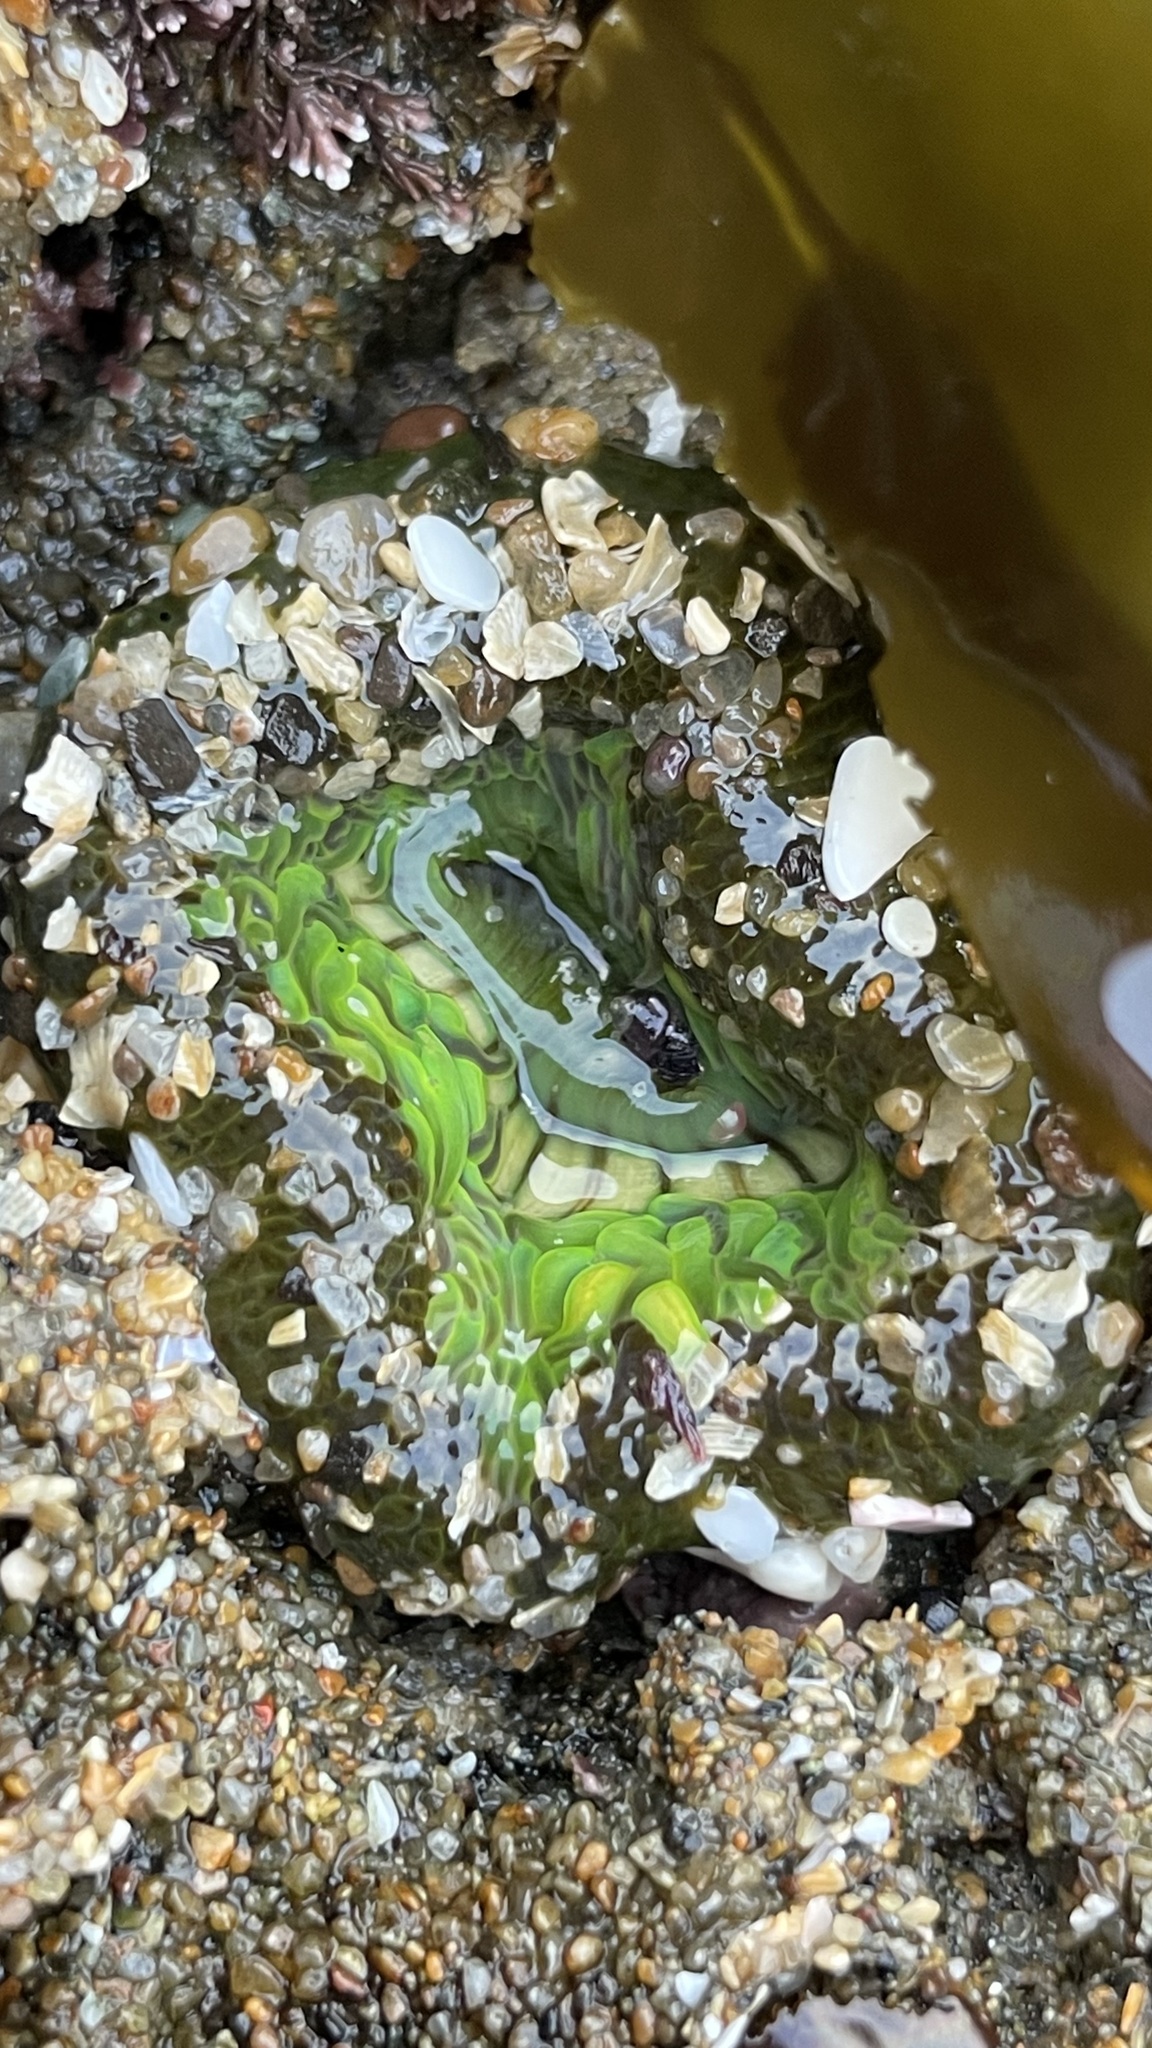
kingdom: Animalia
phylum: Cnidaria
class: Anthozoa
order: Actiniaria
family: Actiniidae
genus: Anthopleura
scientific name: Anthopleura sola
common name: Sun anemone
